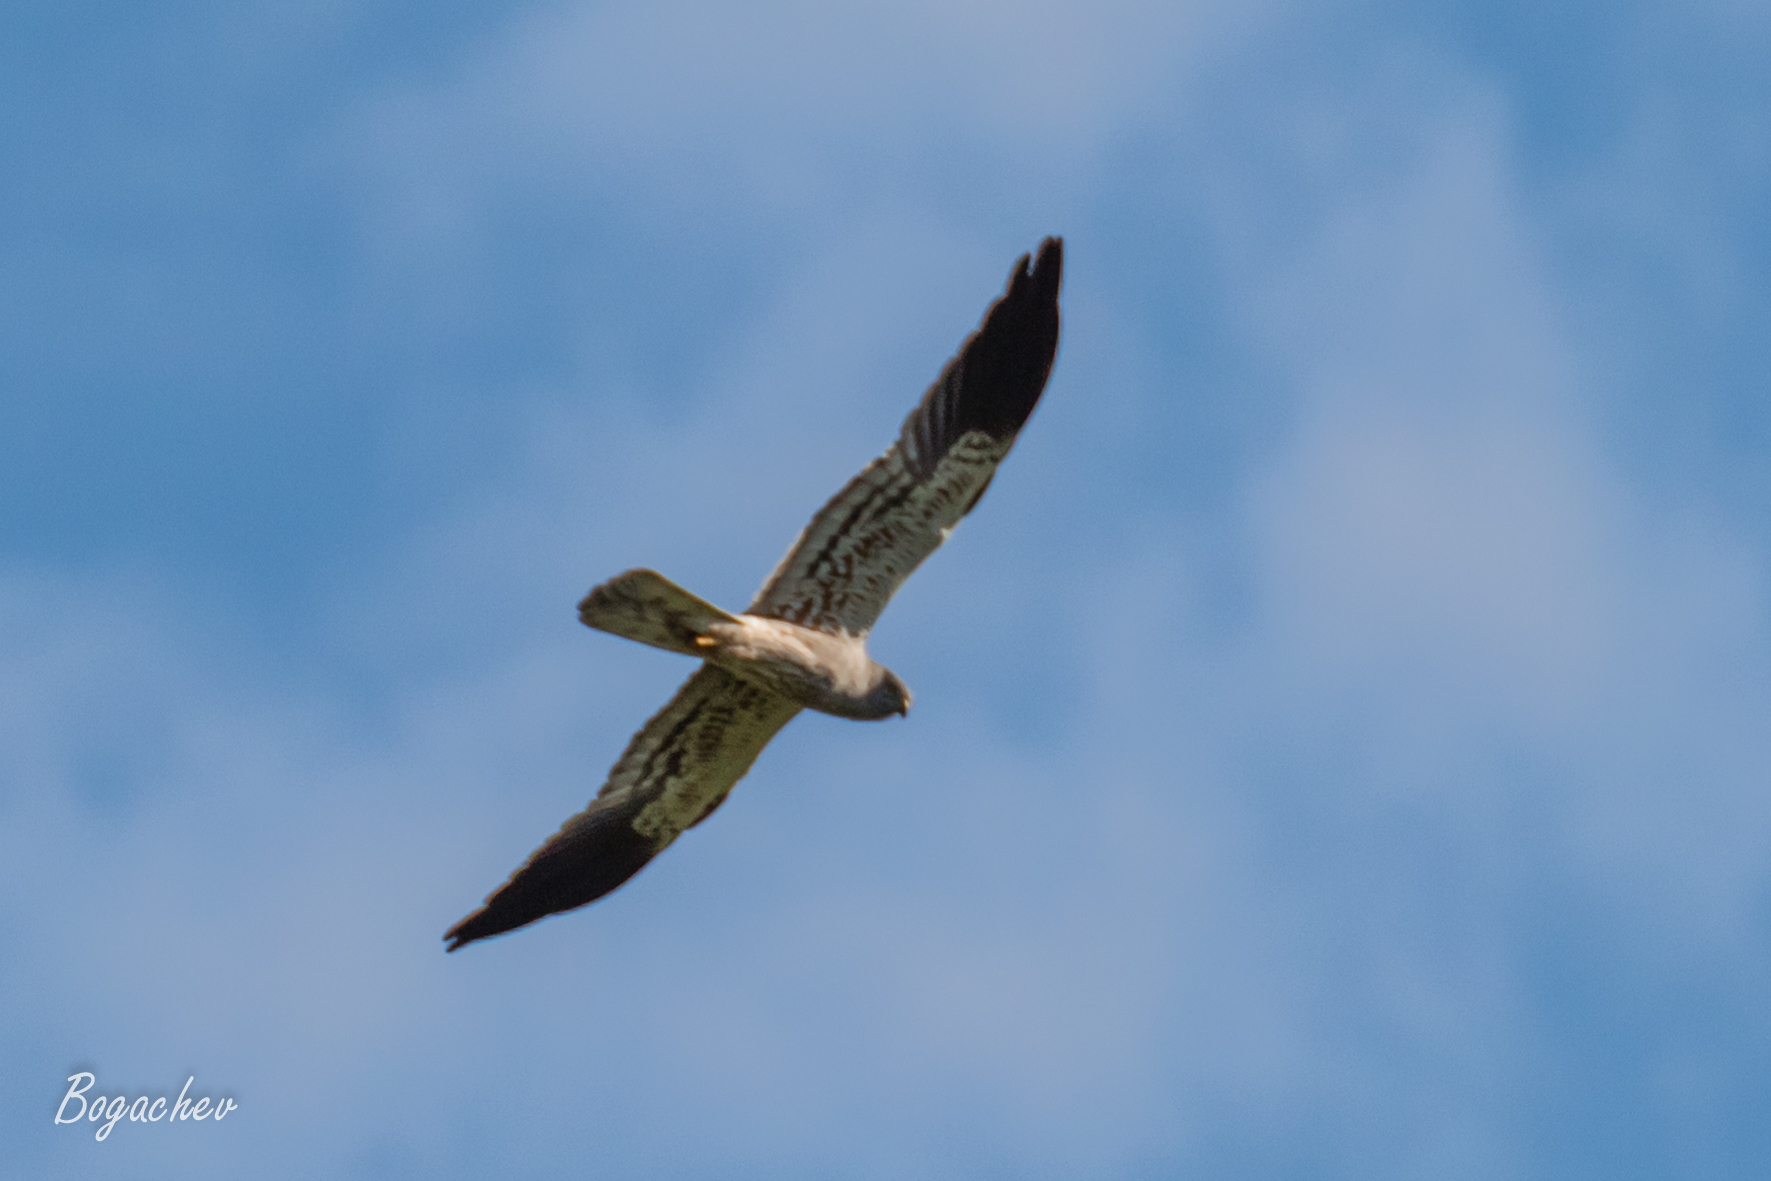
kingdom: Animalia
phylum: Chordata
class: Aves
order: Accipitriformes
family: Accipitridae
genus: Circus
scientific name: Circus pygargus
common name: Montagu's harrier
